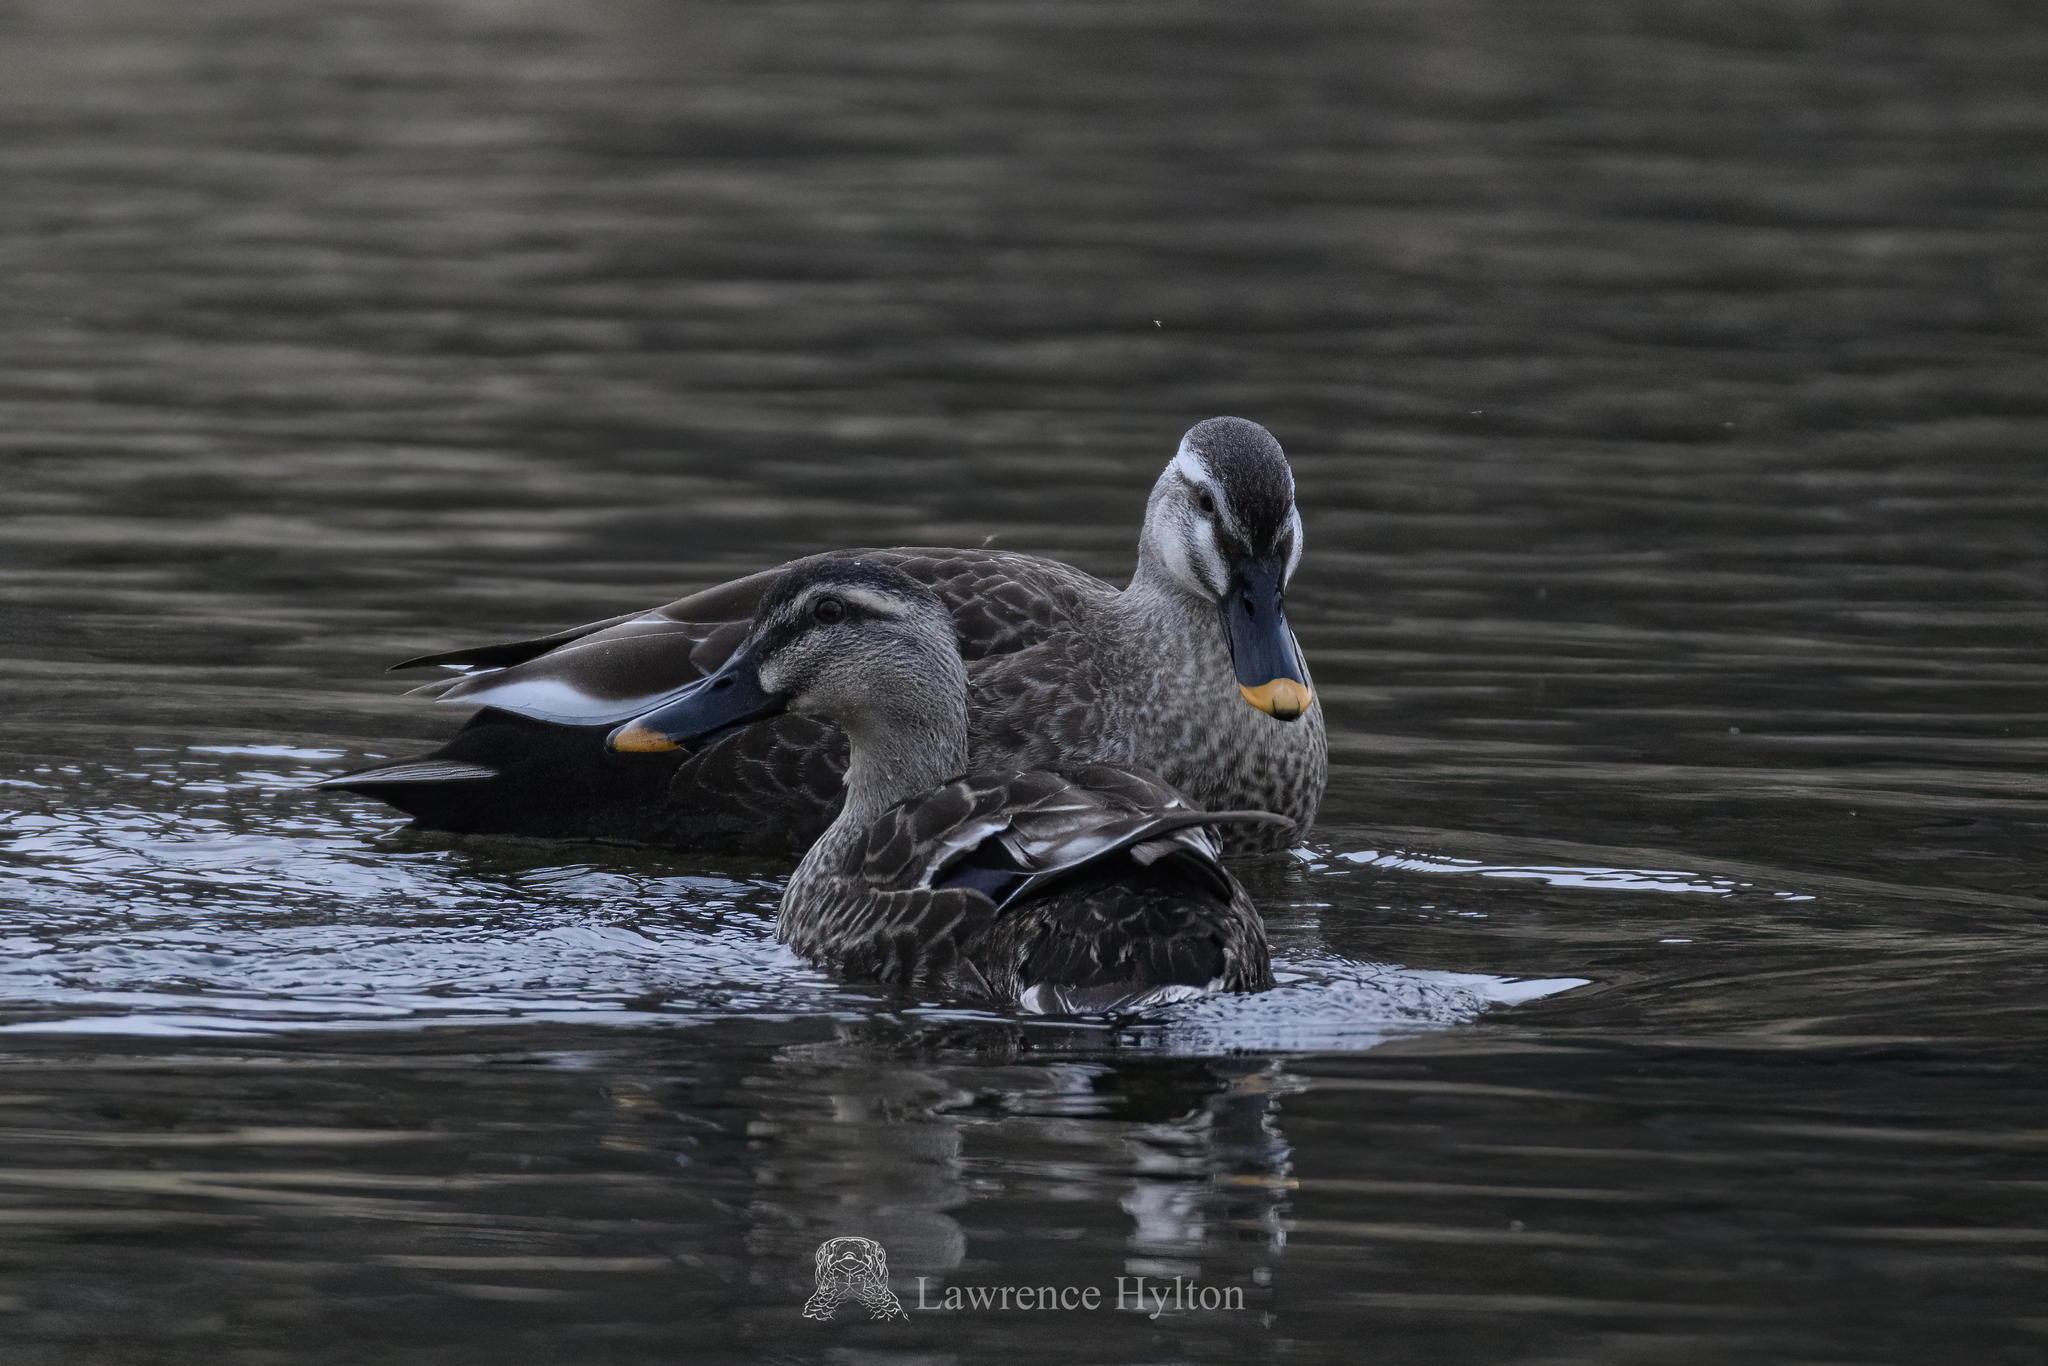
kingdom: Animalia
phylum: Chordata
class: Aves
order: Anseriformes
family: Anatidae
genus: Anas
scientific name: Anas zonorhyncha
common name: Eastern spot-billed duck
